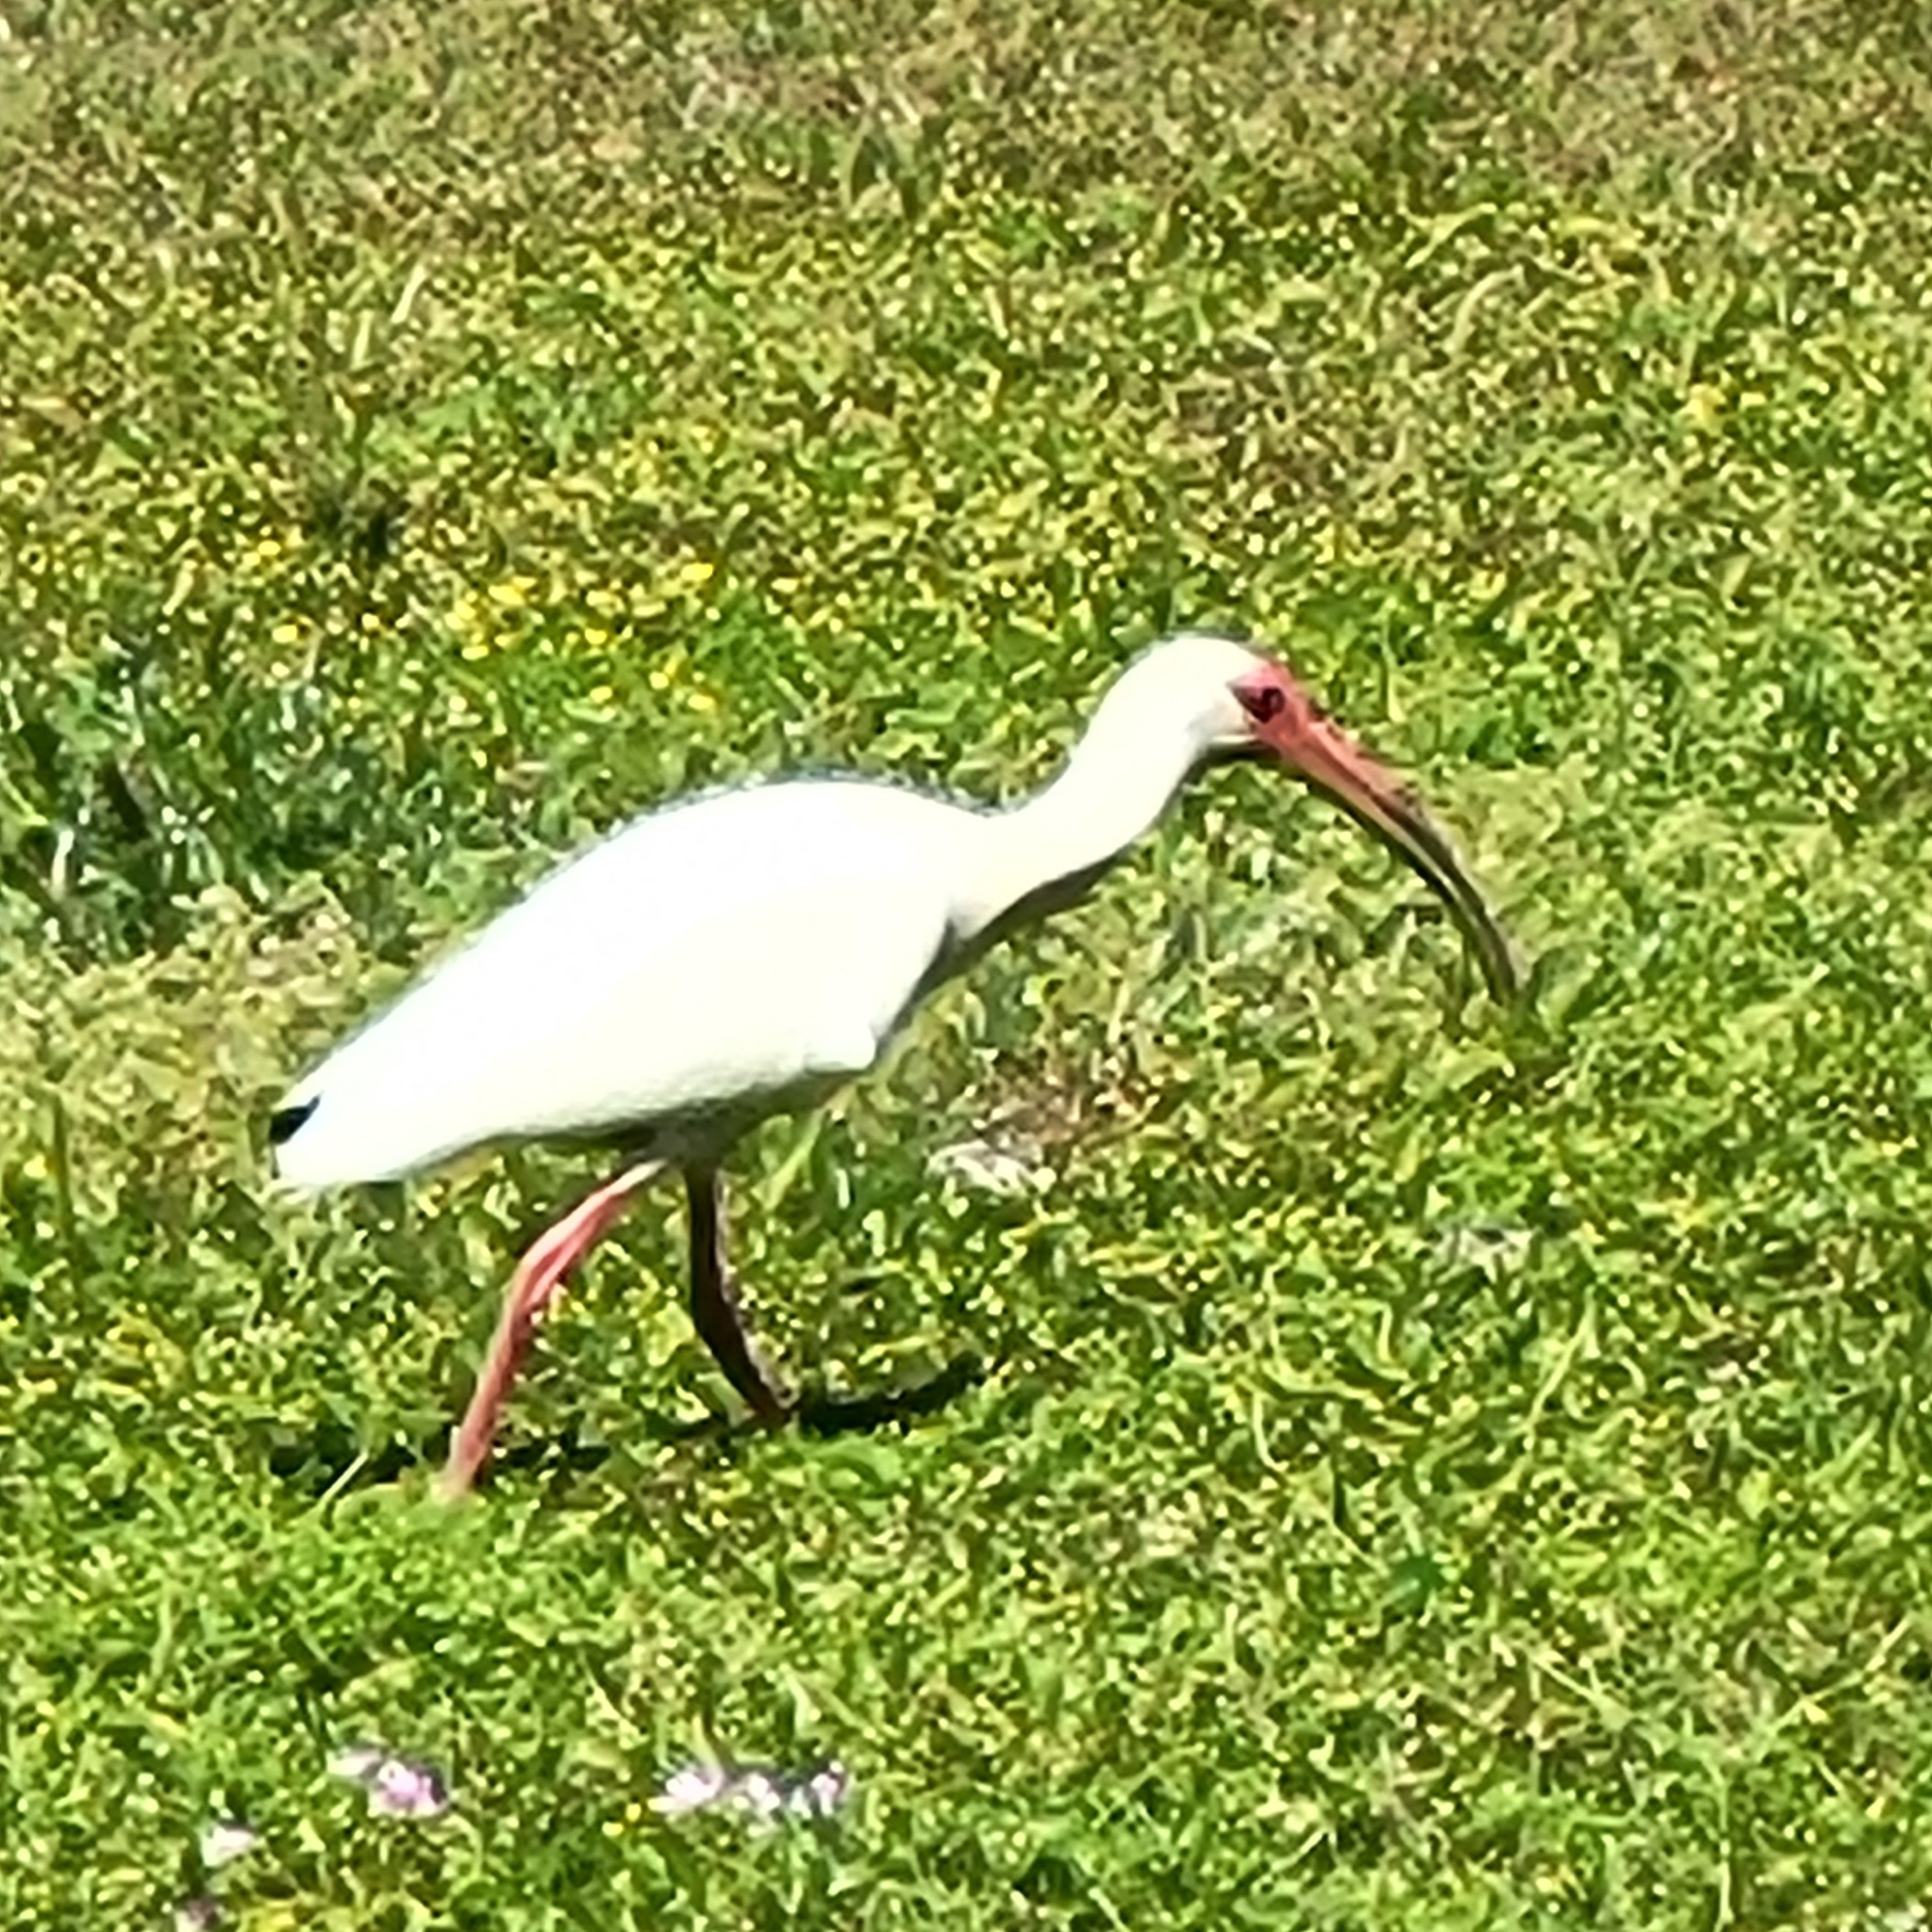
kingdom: Animalia
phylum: Chordata
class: Aves
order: Pelecaniformes
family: Threskiornithidae
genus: Eudocimus
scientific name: Eudocimus albus
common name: White ibis
